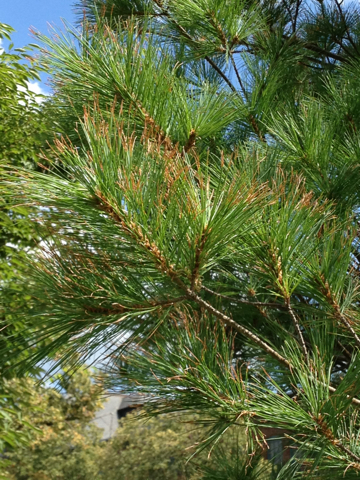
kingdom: Plantae
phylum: Tracheophyta
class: Pinopsida
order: Pinales
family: Pinaceae
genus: Pinus
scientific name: Pinus strobus
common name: Weymouth pine
